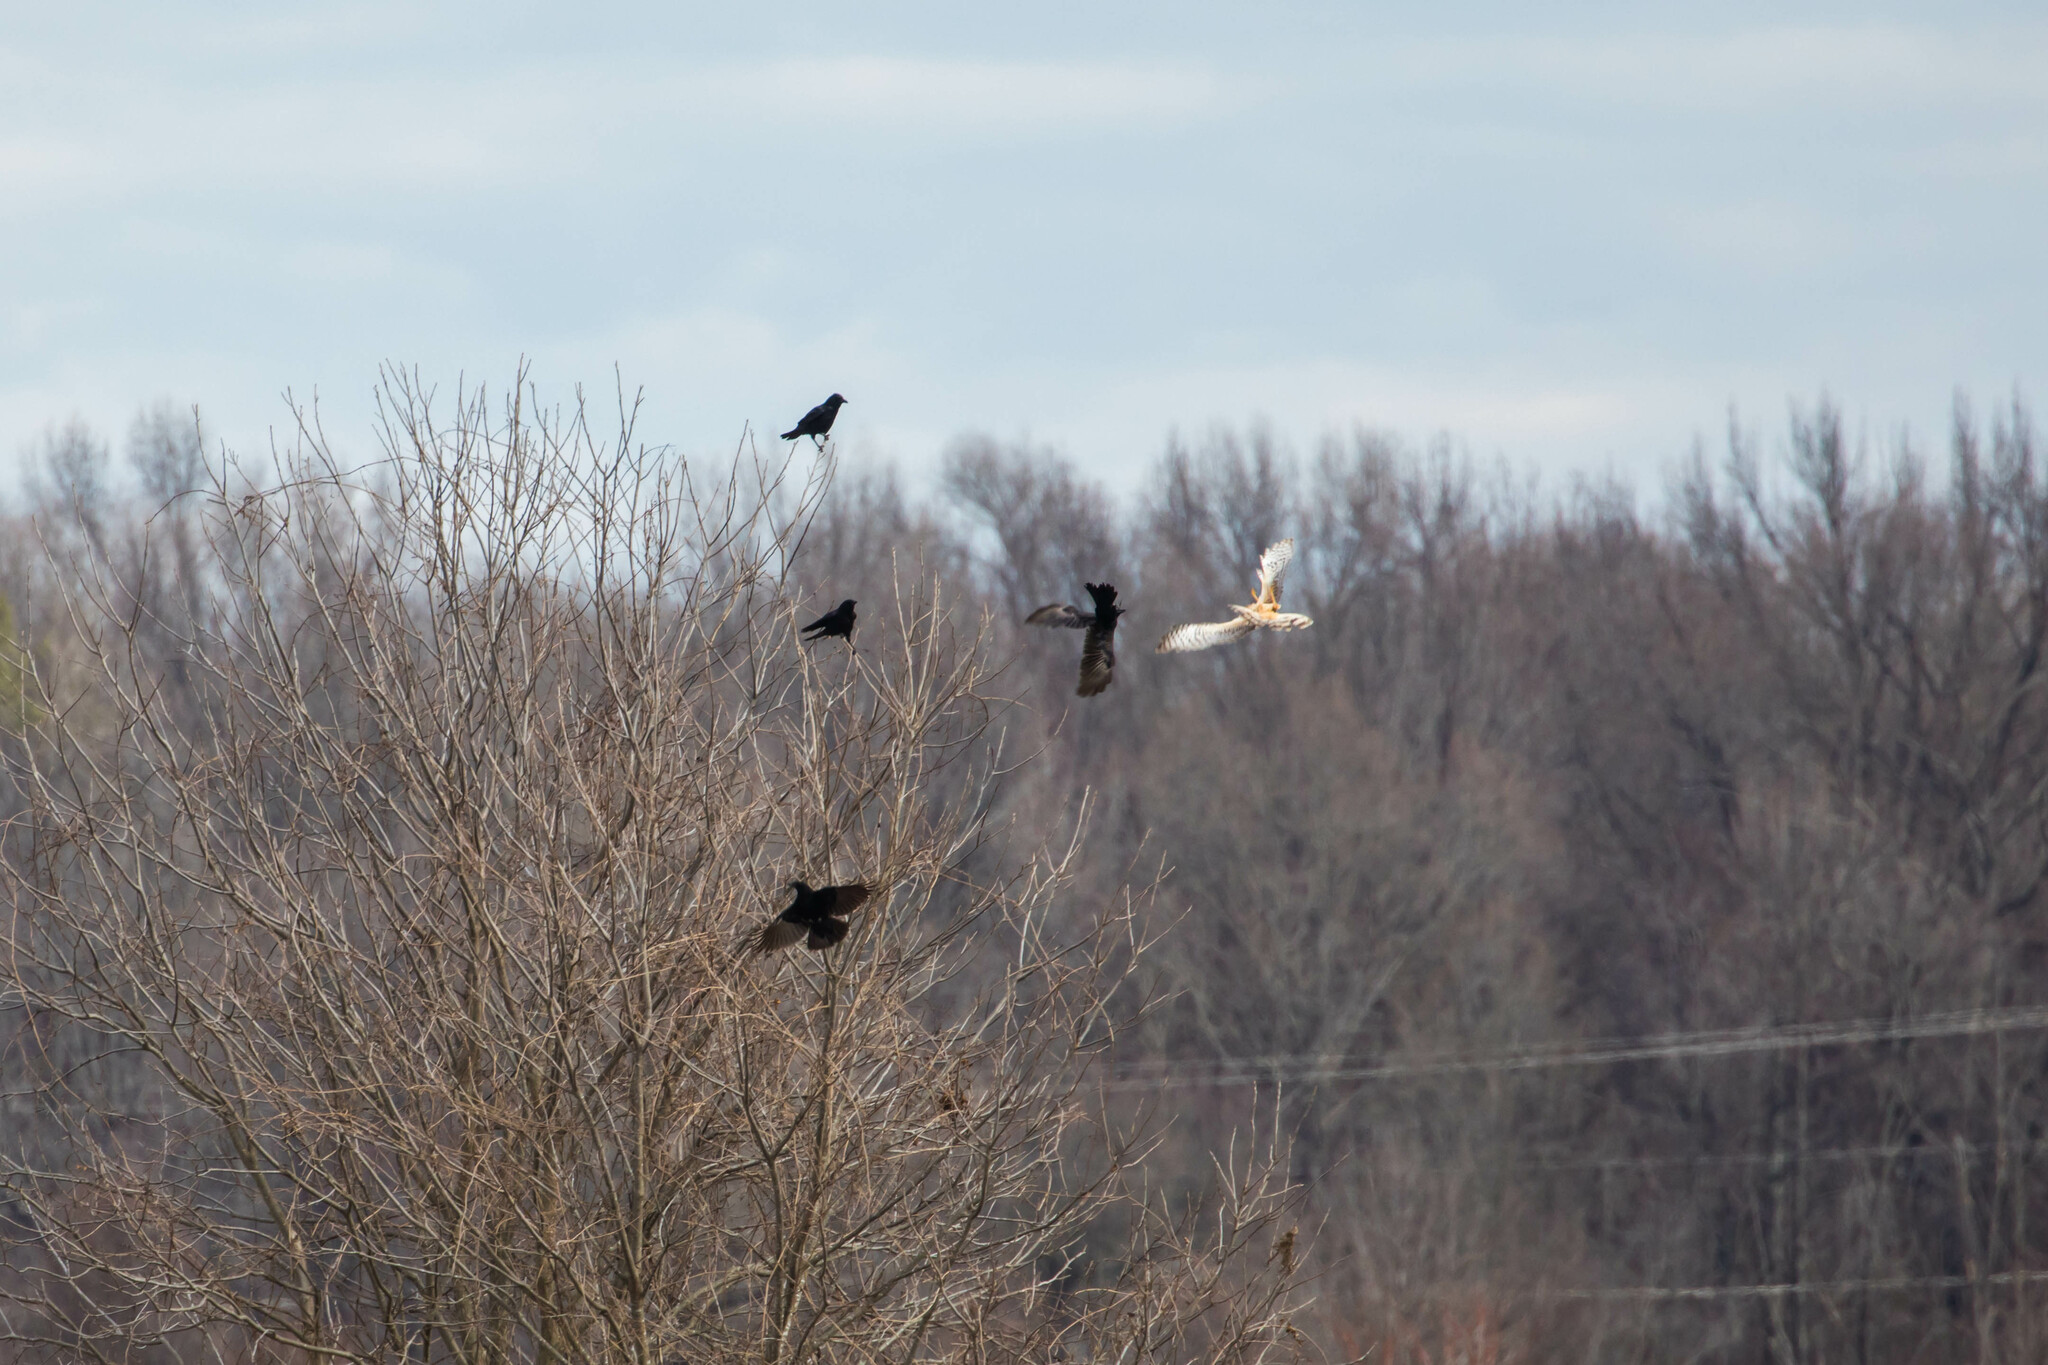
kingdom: Animalia
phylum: Chordata
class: Aves
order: Accipitriformes
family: Accipitridae
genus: Circus
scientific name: Circus cyaneus
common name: Hen harrier
